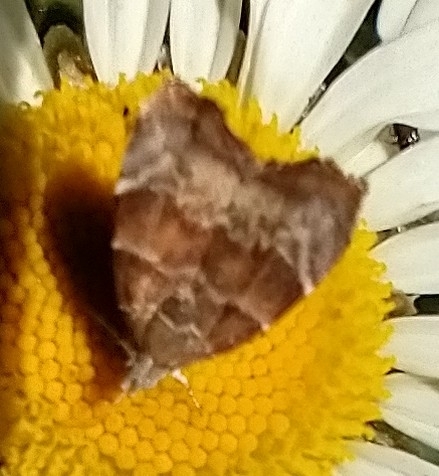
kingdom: Animalia
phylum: Arthropoda
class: Insecta
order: Lepidoptera
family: Choreutidae
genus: Anthophila
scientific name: Anthophila nemorana
